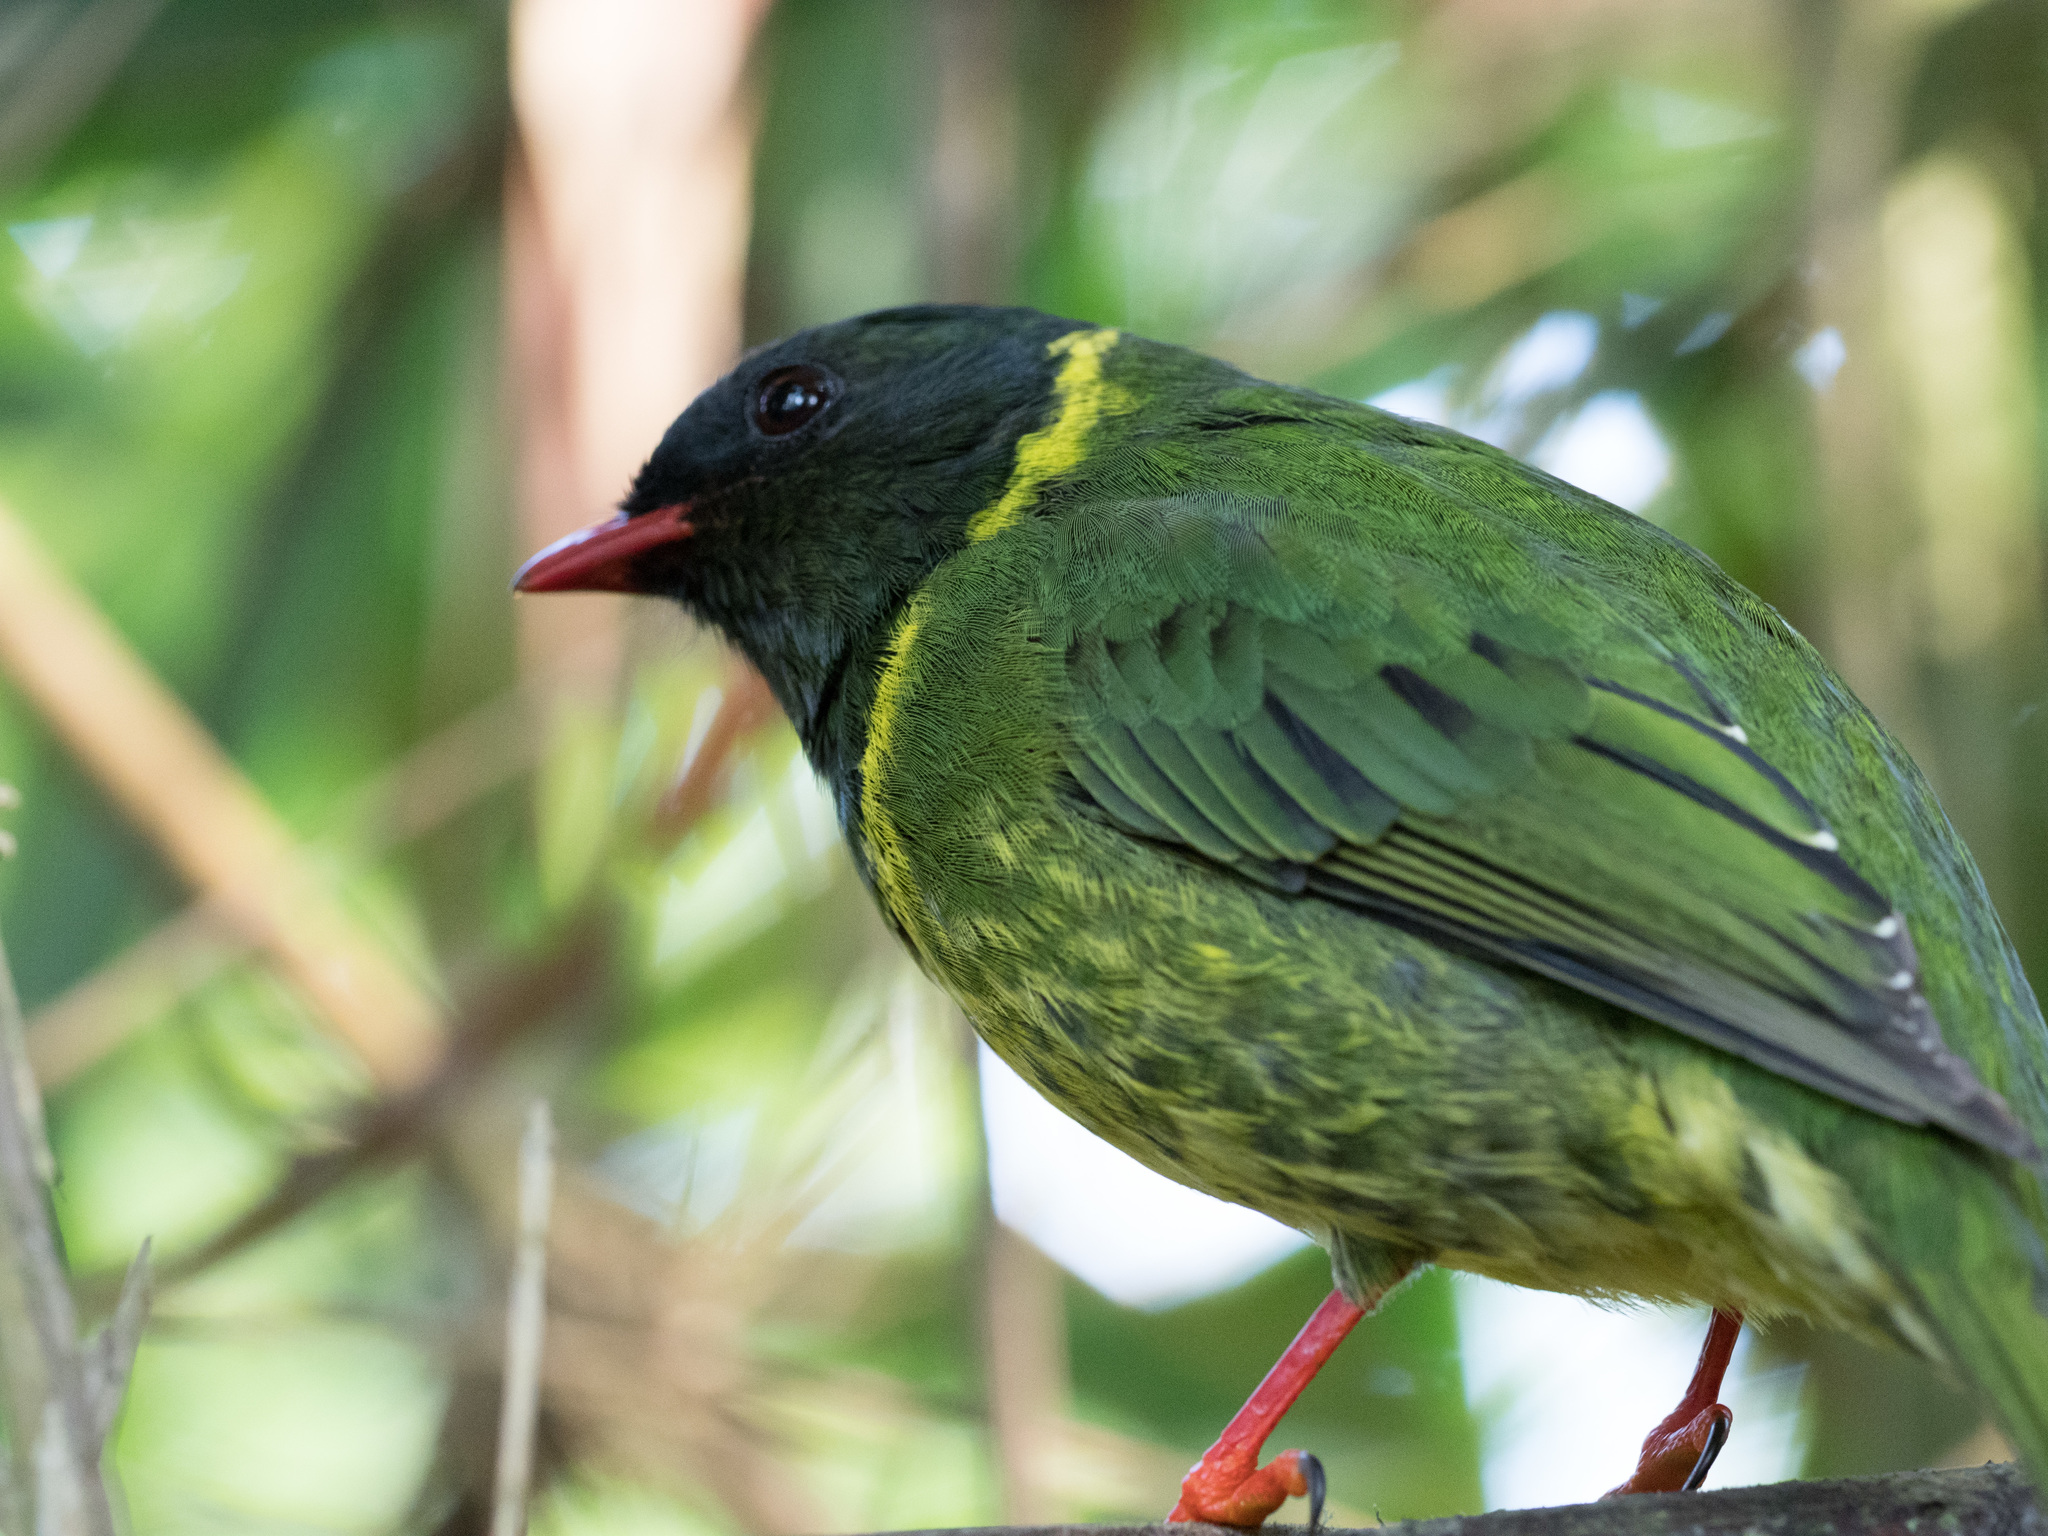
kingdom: Animalia
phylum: Chordata
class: Aves
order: Passeriformes
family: Cotingidae
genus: Pipreola
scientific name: Pipreola riefferii
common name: Green-and-black fruiteater
